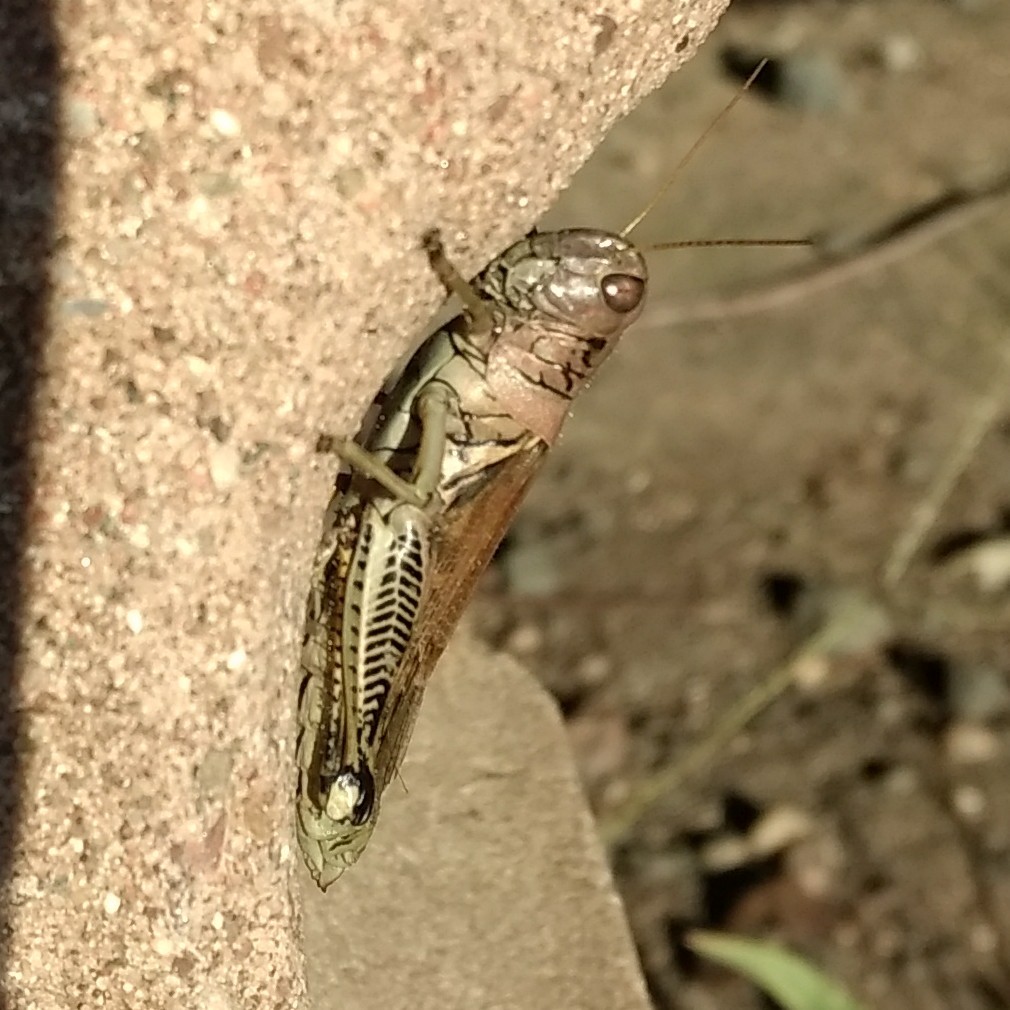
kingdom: Animalia
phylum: Arthropoda
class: Insecta
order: Orthoptera
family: Acrididae
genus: Melanoplus
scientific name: Melanoplus differentialis
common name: Differential grasshopper
